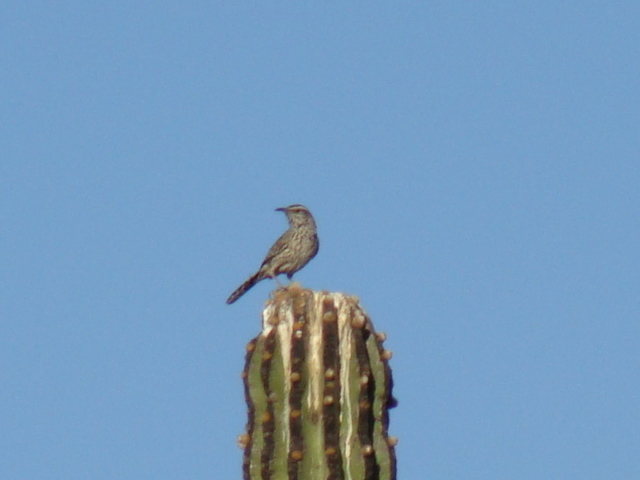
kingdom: Animalia
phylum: Chordata
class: Aves
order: Passeriformes
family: Troglodytidae
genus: Campylorhynchus
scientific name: Campylorhynchus brunneicapillus
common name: Cactus wren
